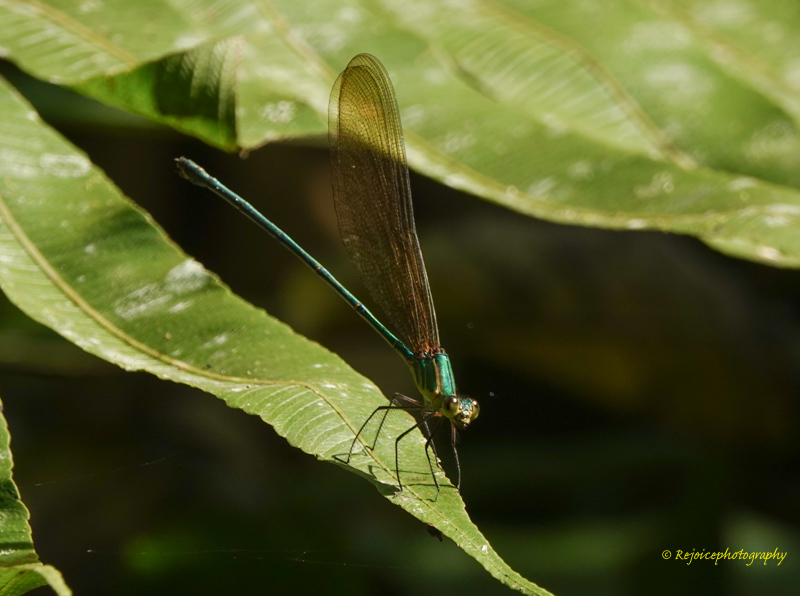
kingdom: Animalia
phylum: Arthropoda
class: Insecta
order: Odonata
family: Calopterygidae
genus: Vestalis
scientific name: Vestalis gracilis
